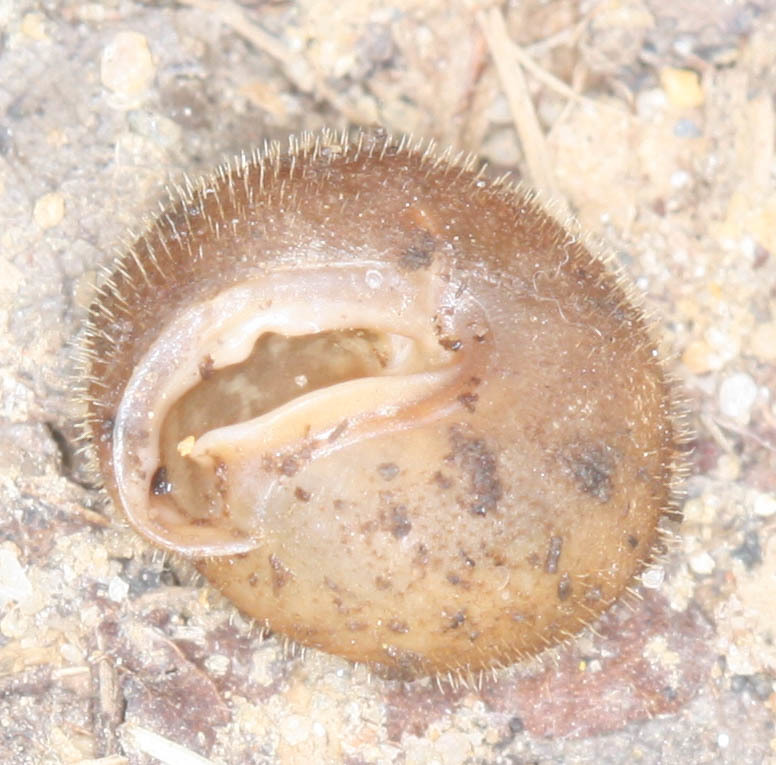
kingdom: Animalia
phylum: Mollusca
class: Gastropoda
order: Stylommatophora
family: Polygyridae
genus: Stenotrema
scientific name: Stenotrema hirsutum
